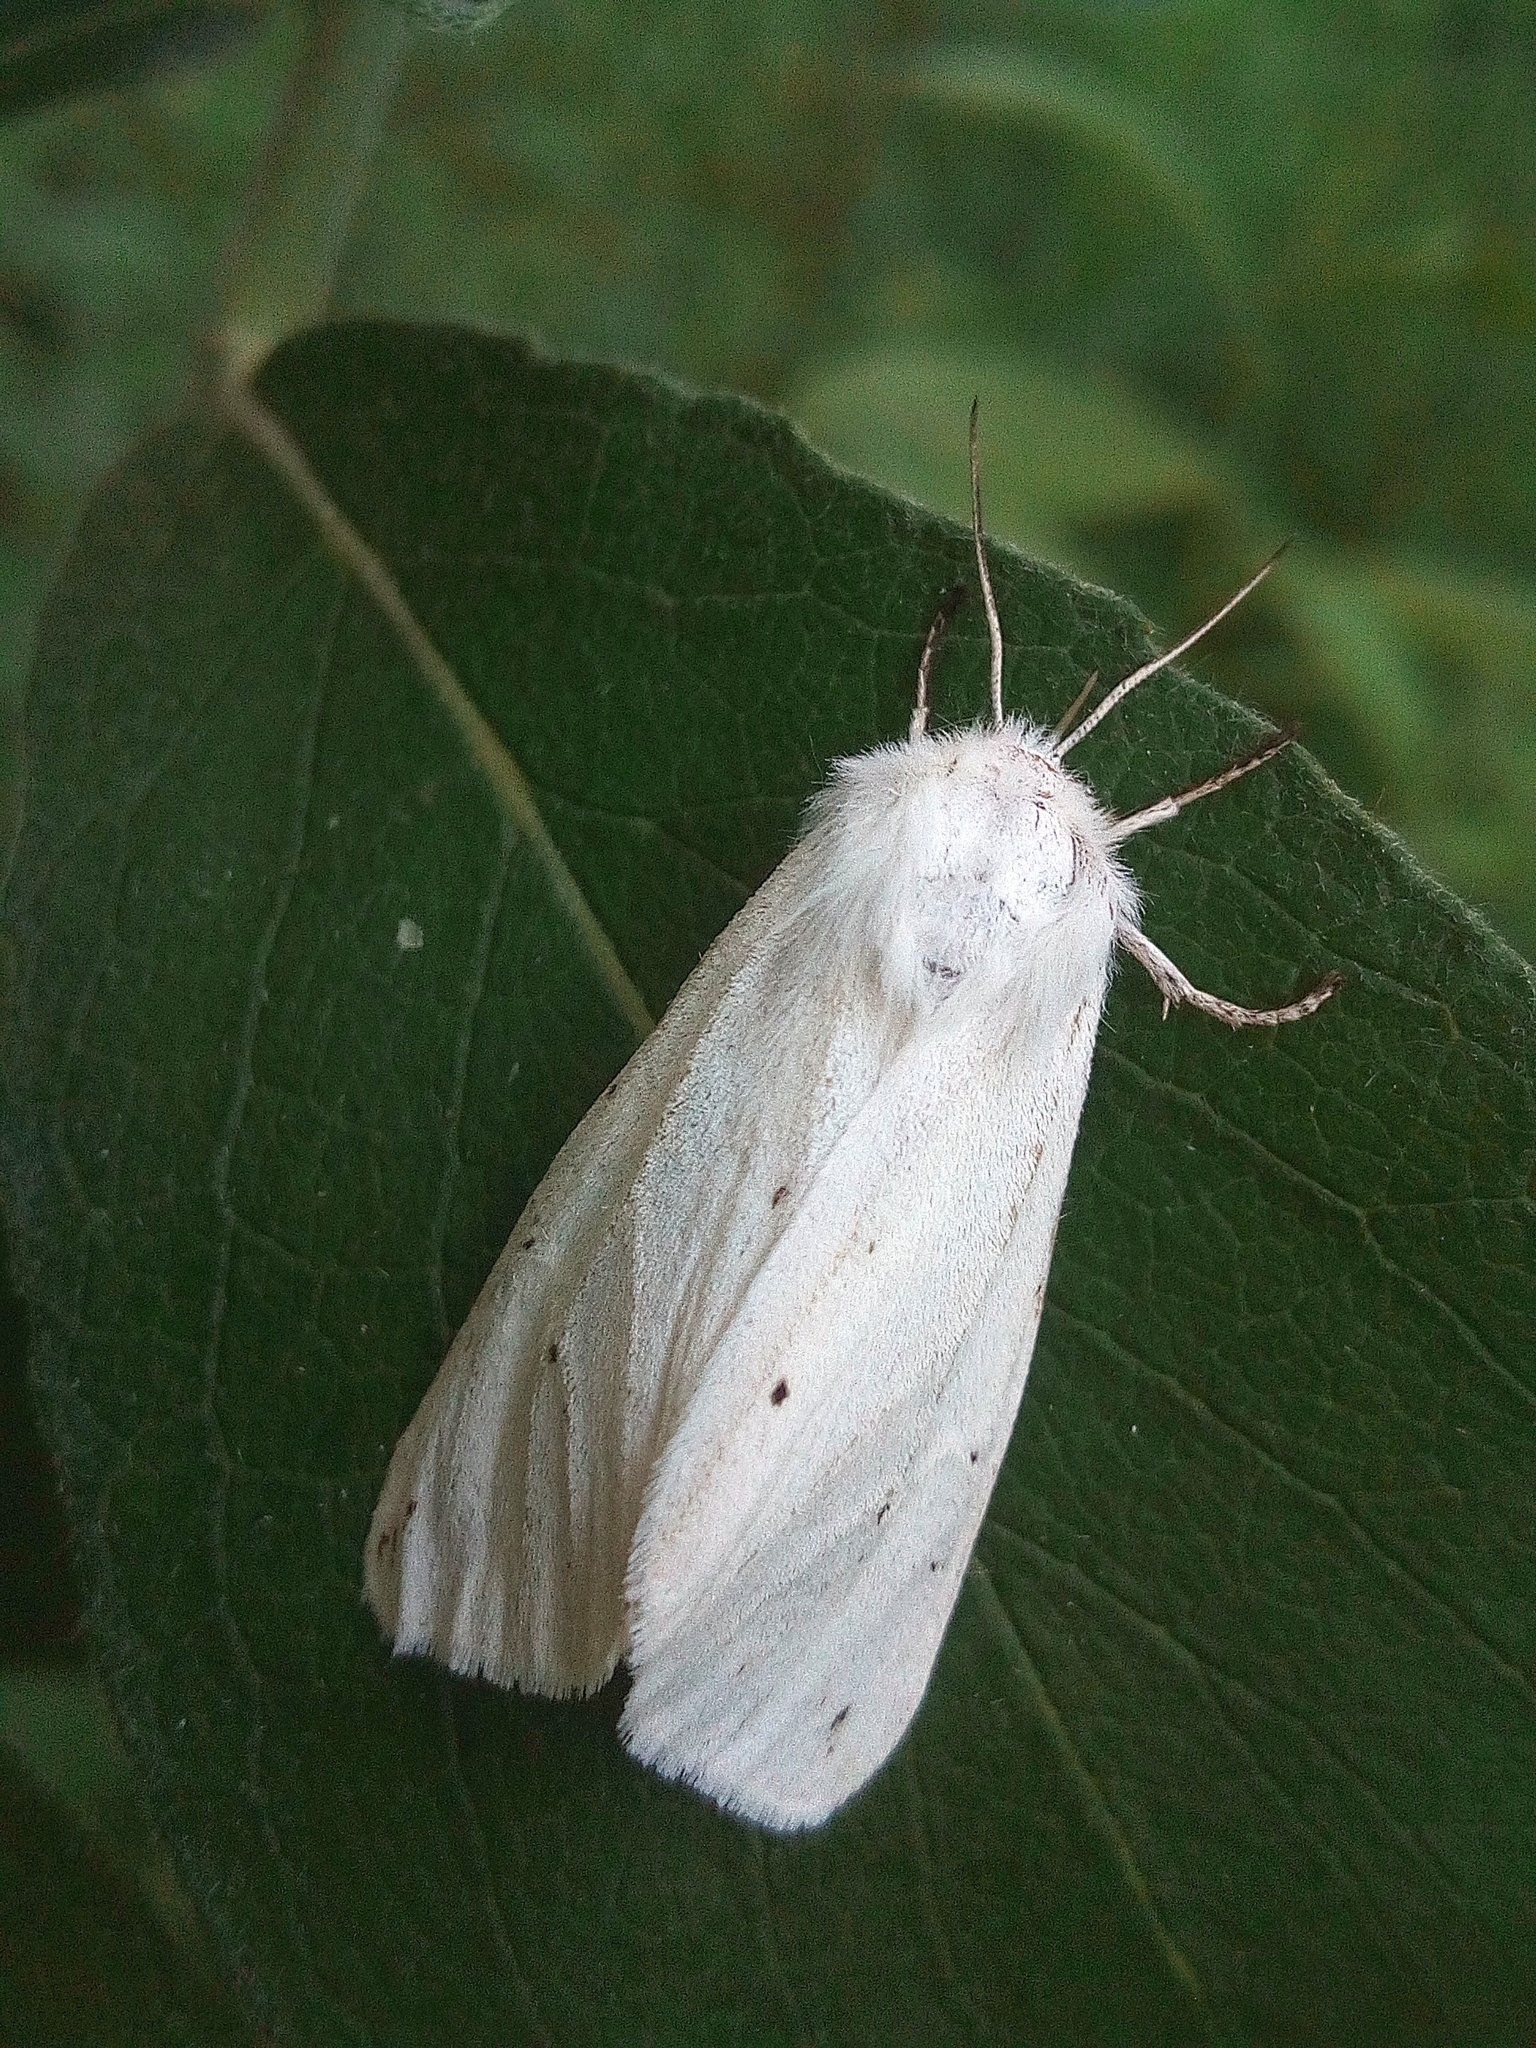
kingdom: Animalia
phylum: Arthropoda
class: Insecta
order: Lepidoptera
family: Erebidae
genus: Spilosoma
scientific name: Spilosoma urticae
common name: Water ermine
